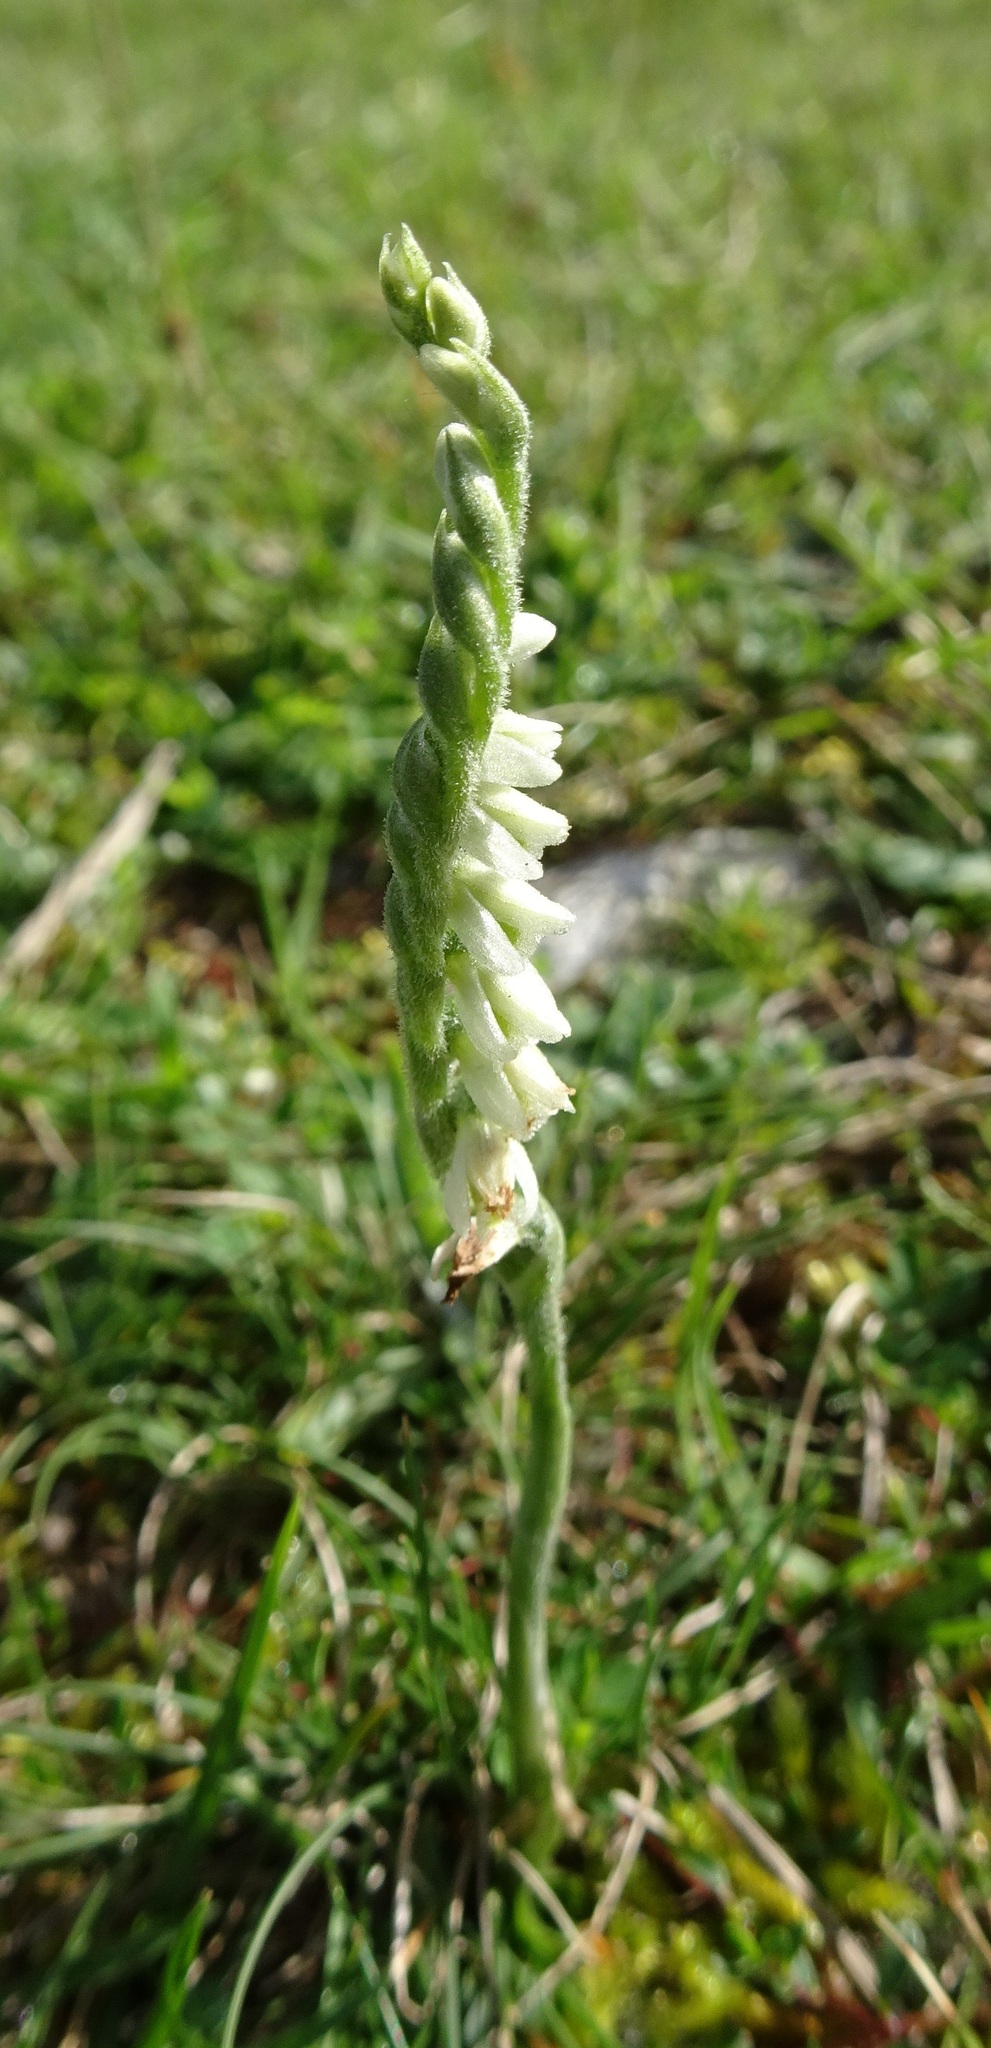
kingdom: Plantae
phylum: Tracheophyta
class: Liliopsida
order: Asparagales
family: Orchidaceae
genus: Spiranthes
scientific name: Spiranthes spiralis
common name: Autumn lady's-tresses
